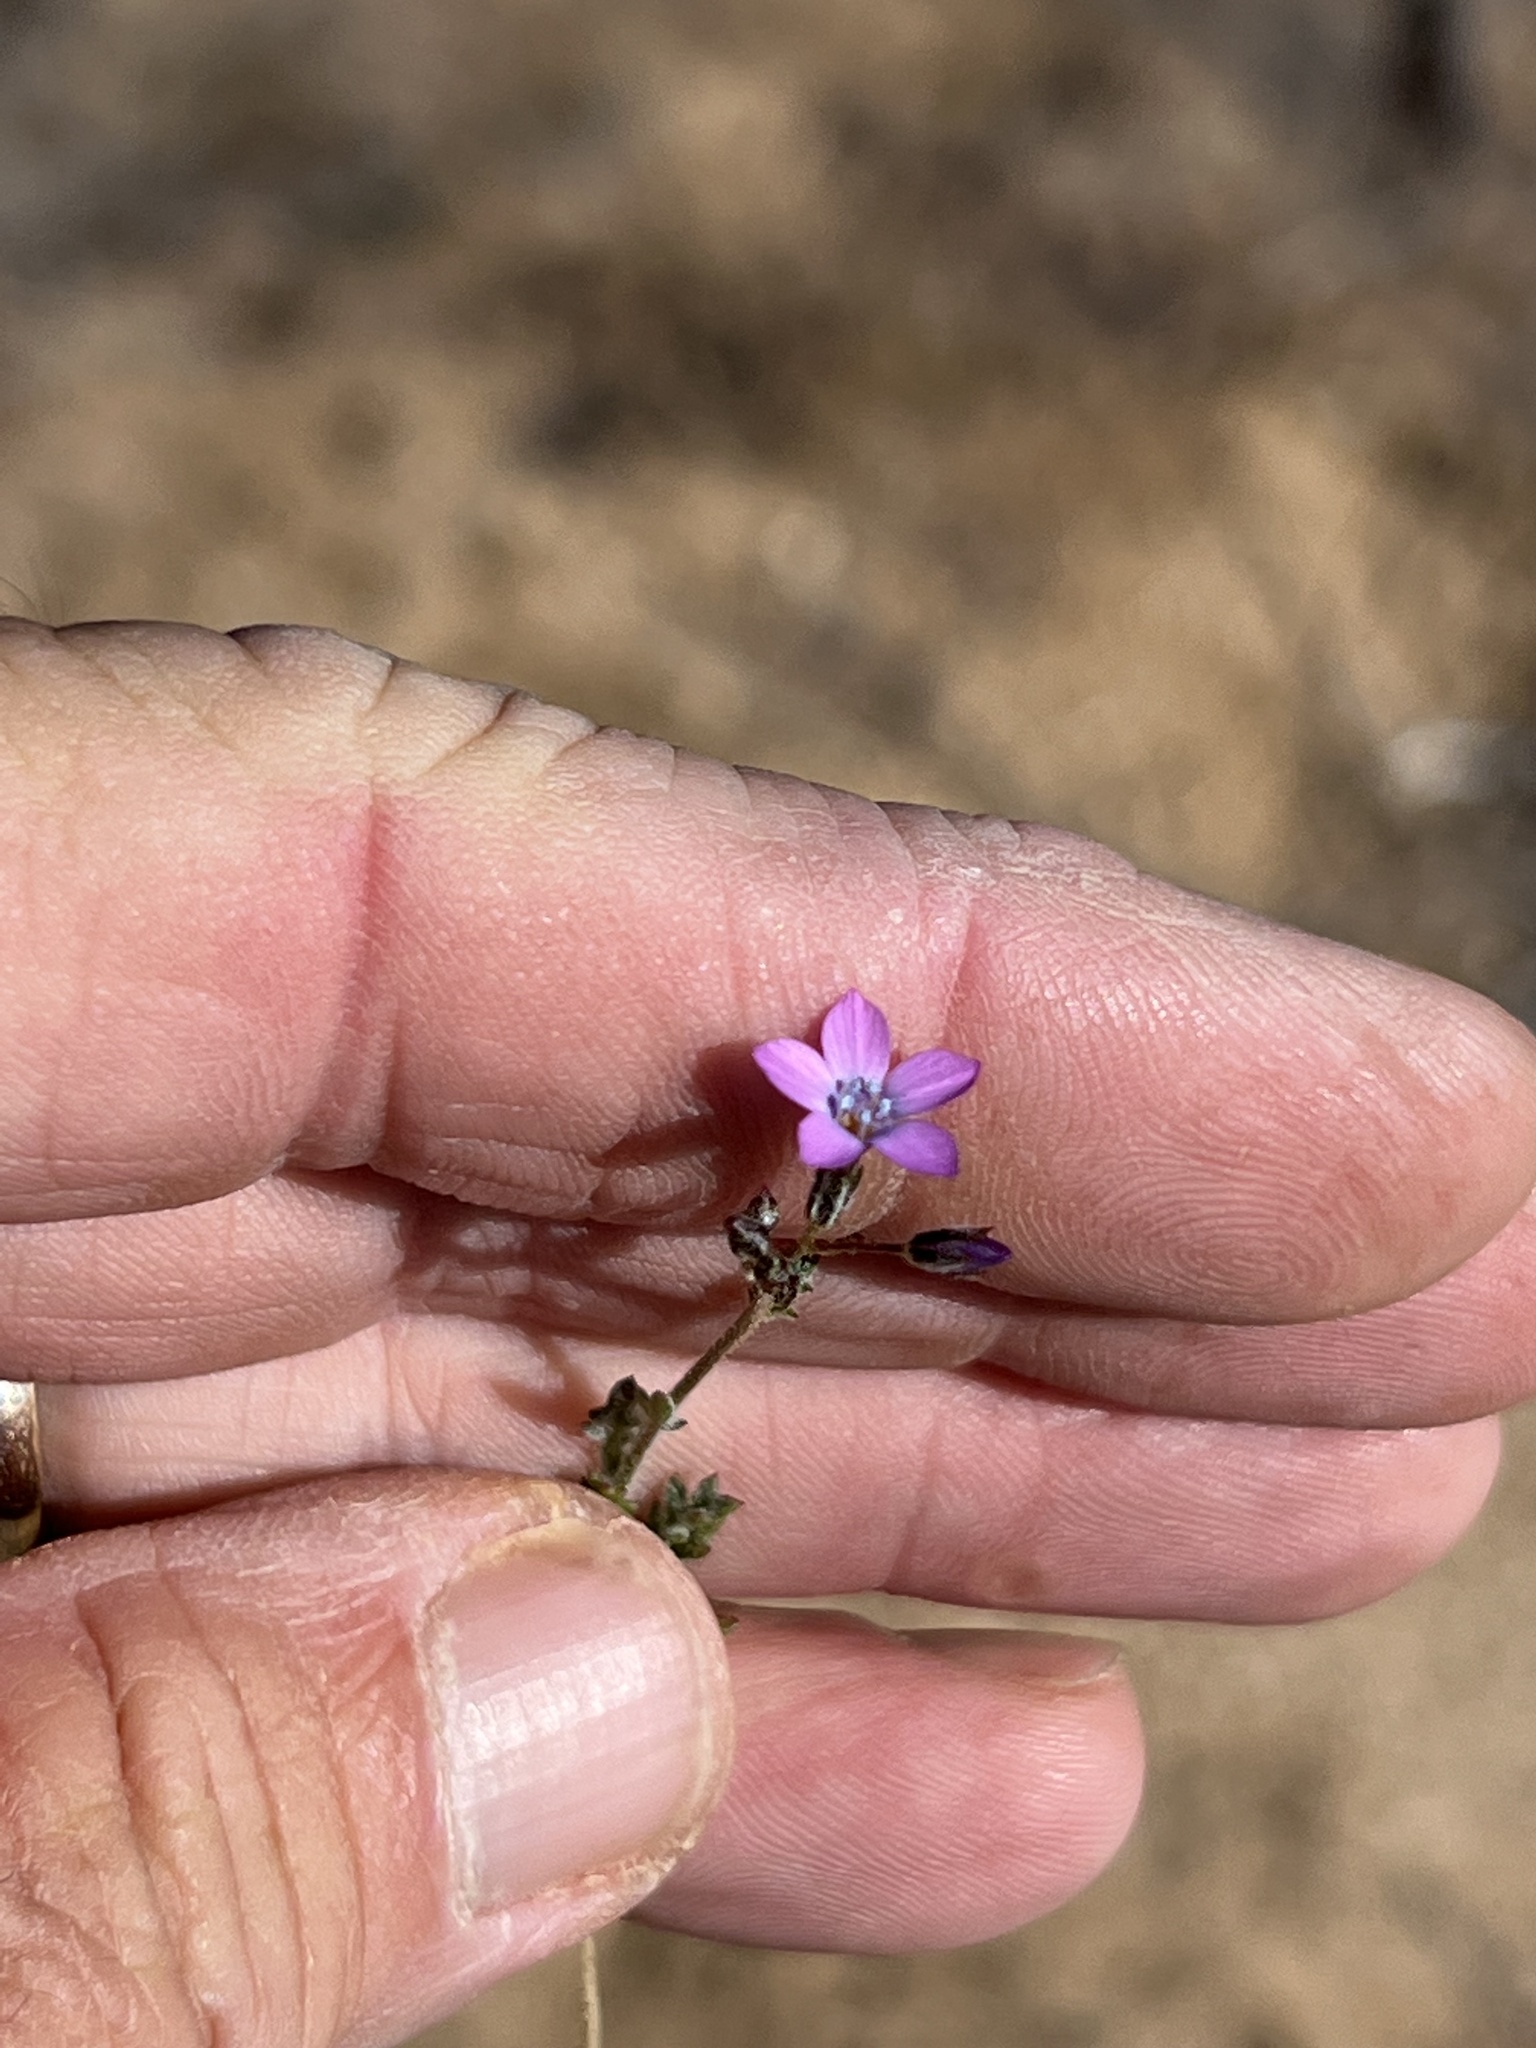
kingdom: Plantae
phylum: Tracheophyta
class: Magnoliopsida
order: Ericales
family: Polemoniaceae
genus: Gilia
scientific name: Gilia flavocincta
